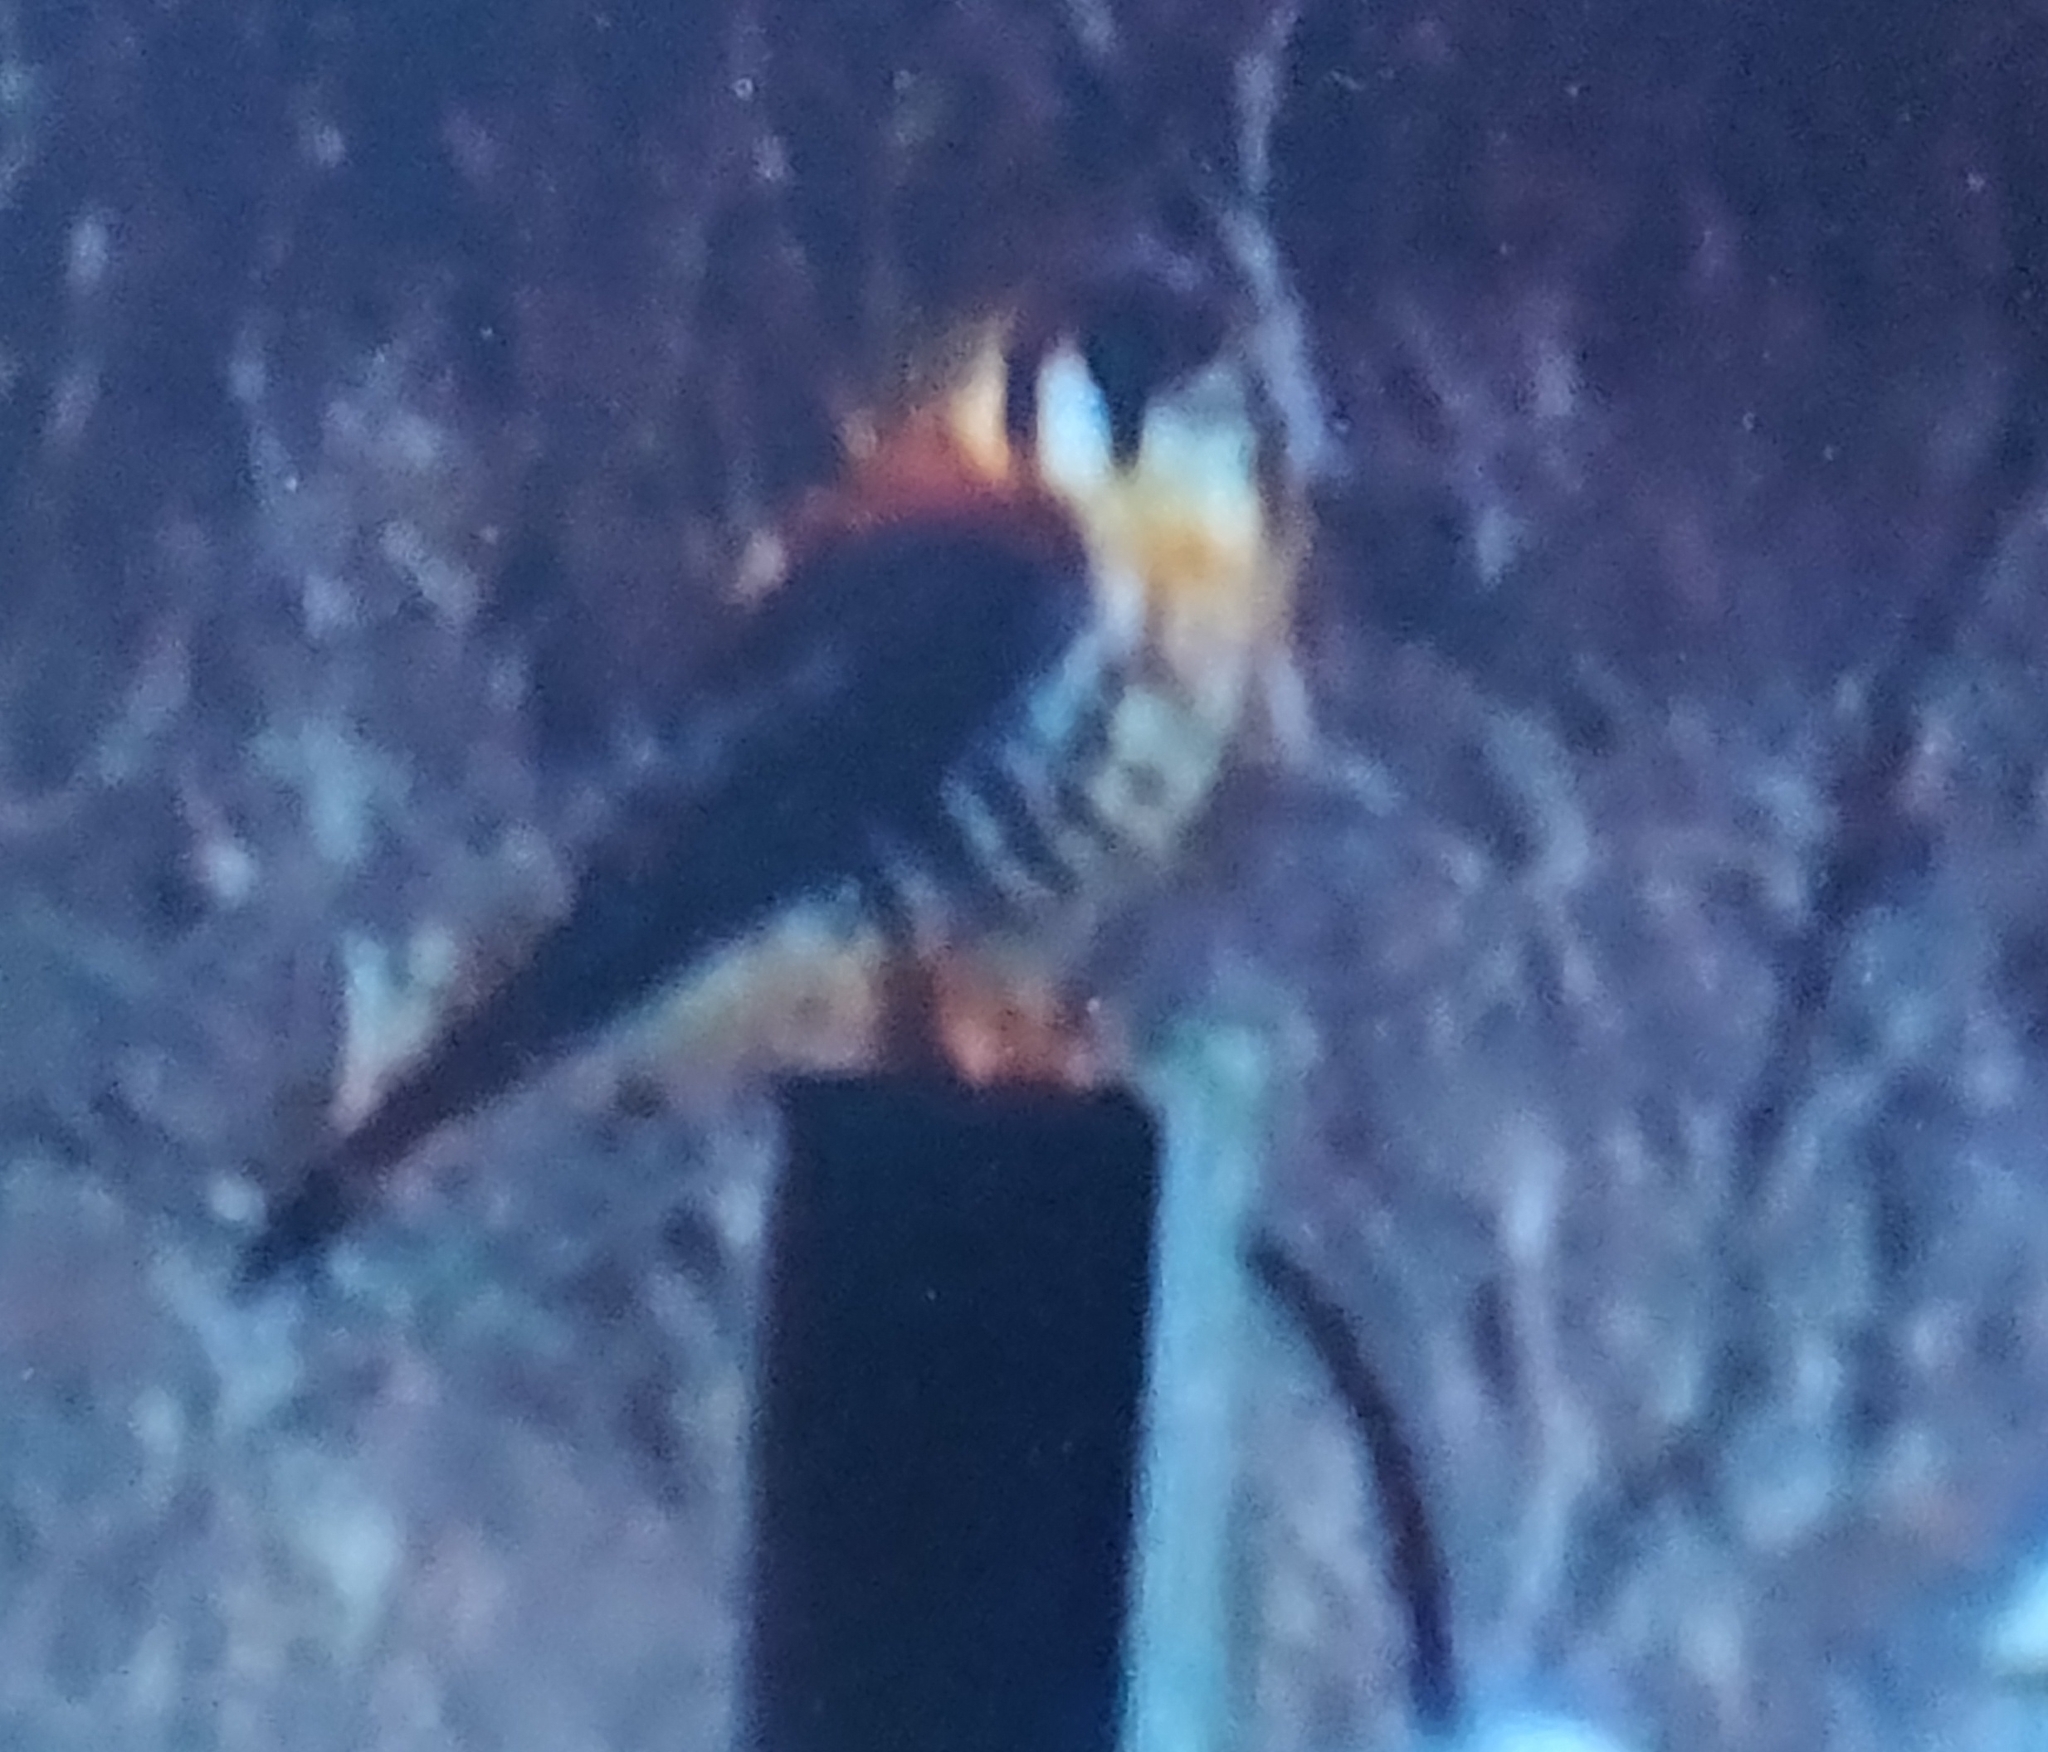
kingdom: Animalia
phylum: Chordata
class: Aves
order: Falconiformes
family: Falconidae
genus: Falco
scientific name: Falco sparverius
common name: American kestrel
